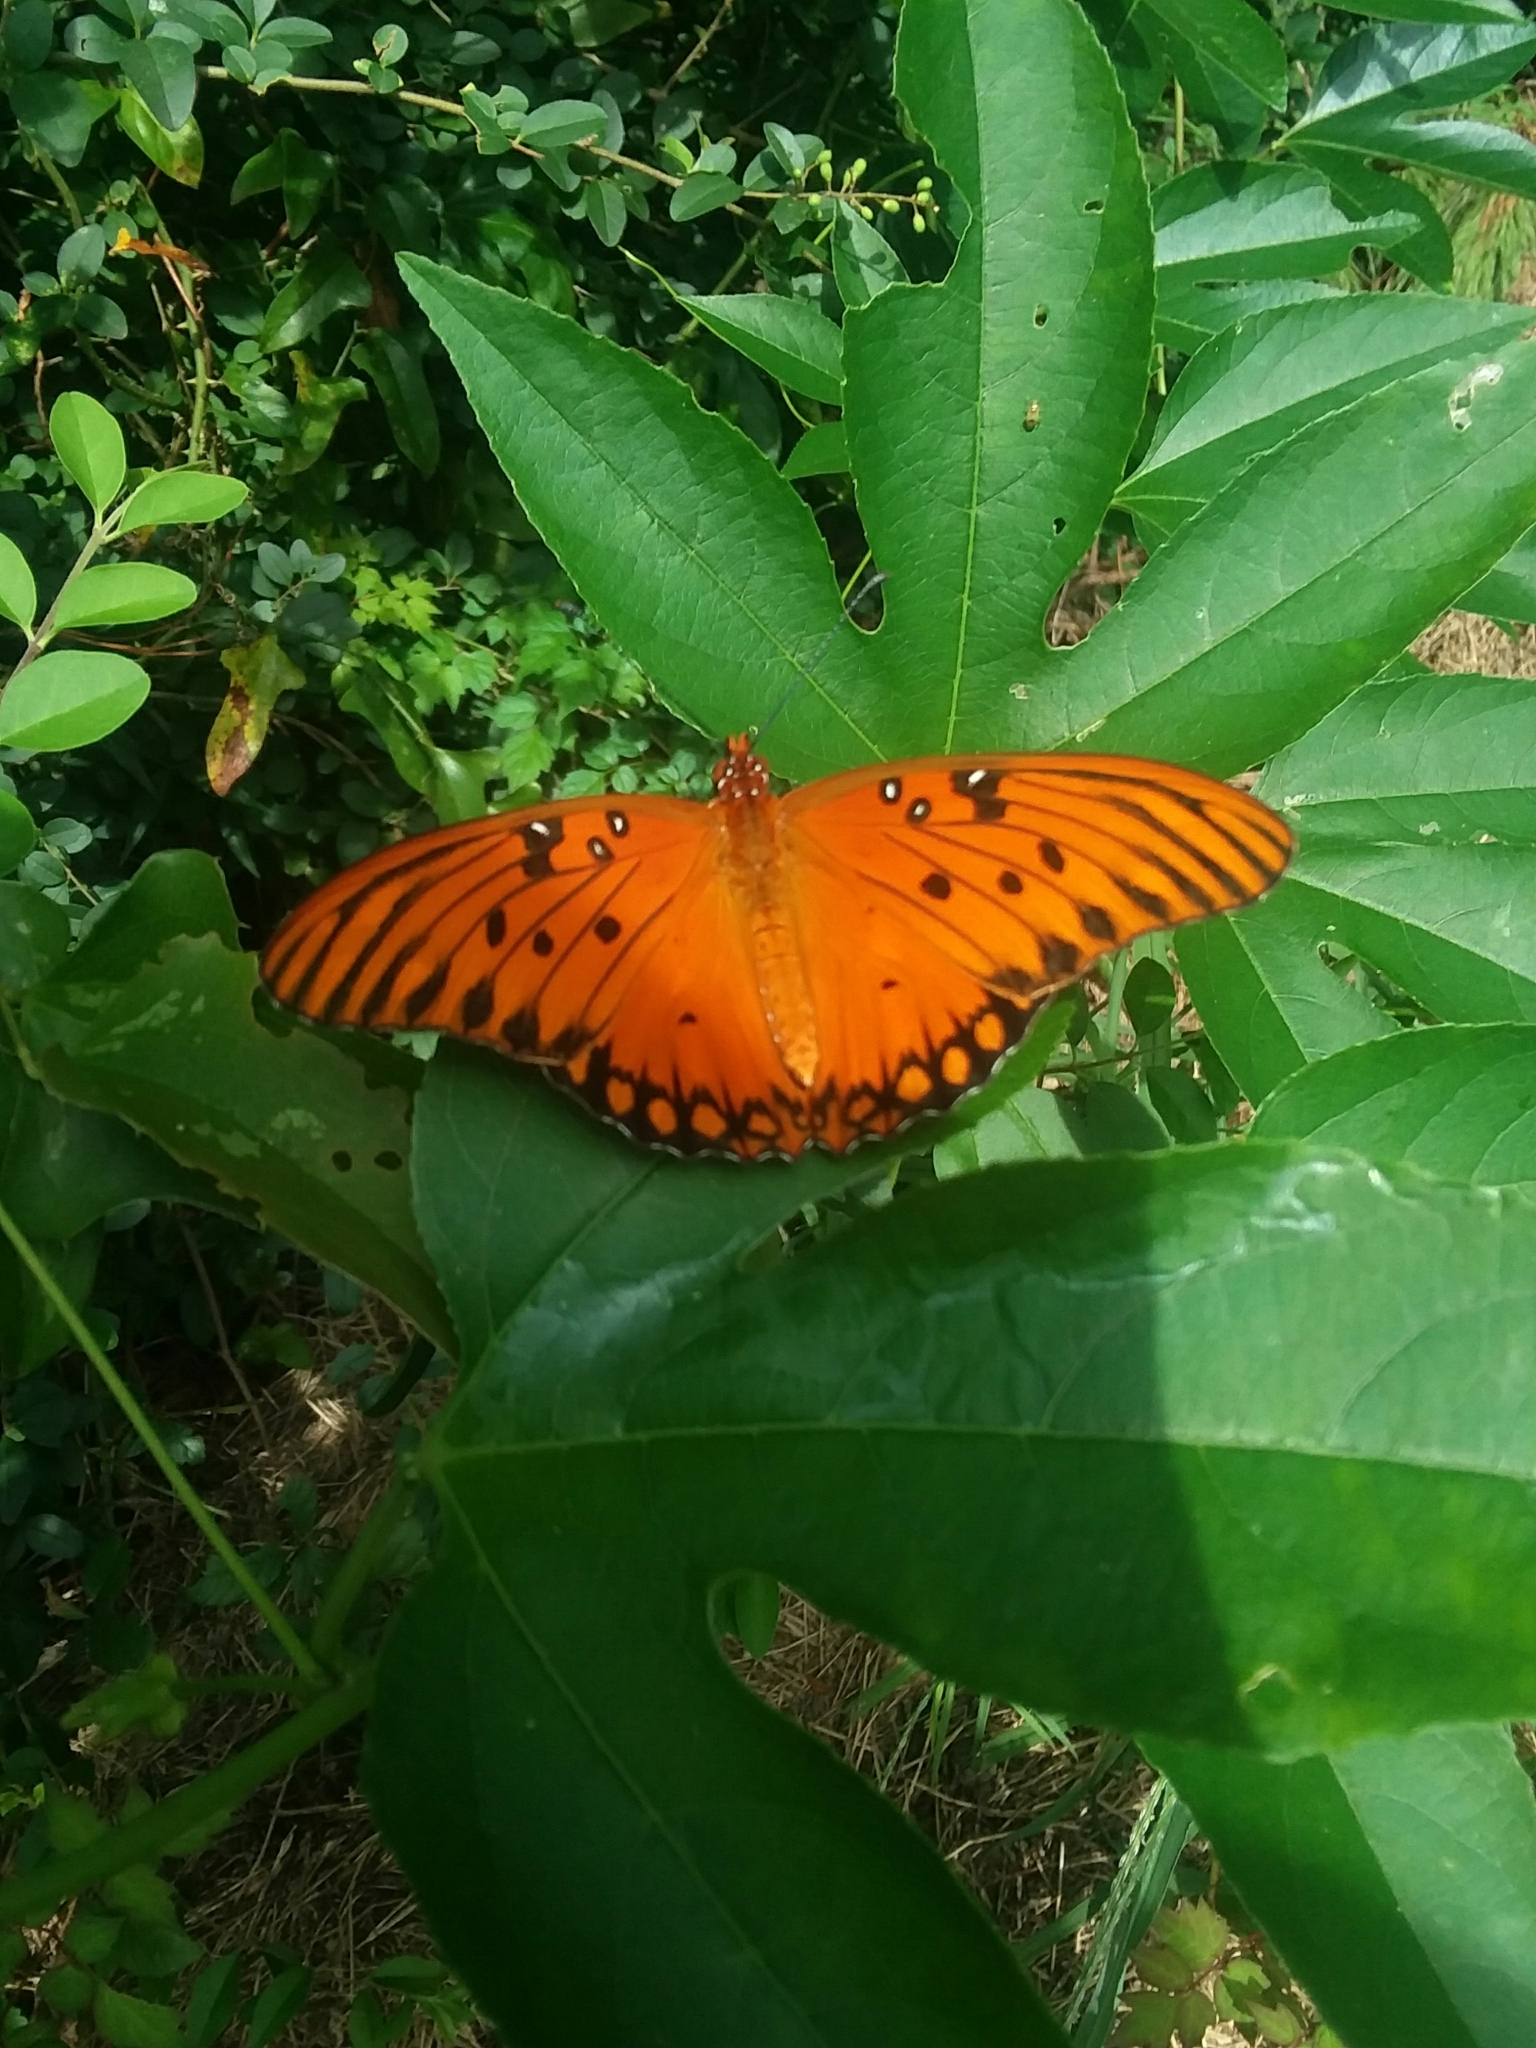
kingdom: Animalia
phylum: Arthropoda
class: Insecta
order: Lepidoptera
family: Nymphalidae
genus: Dione
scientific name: Dione vanillae
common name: Gulf fritillary
